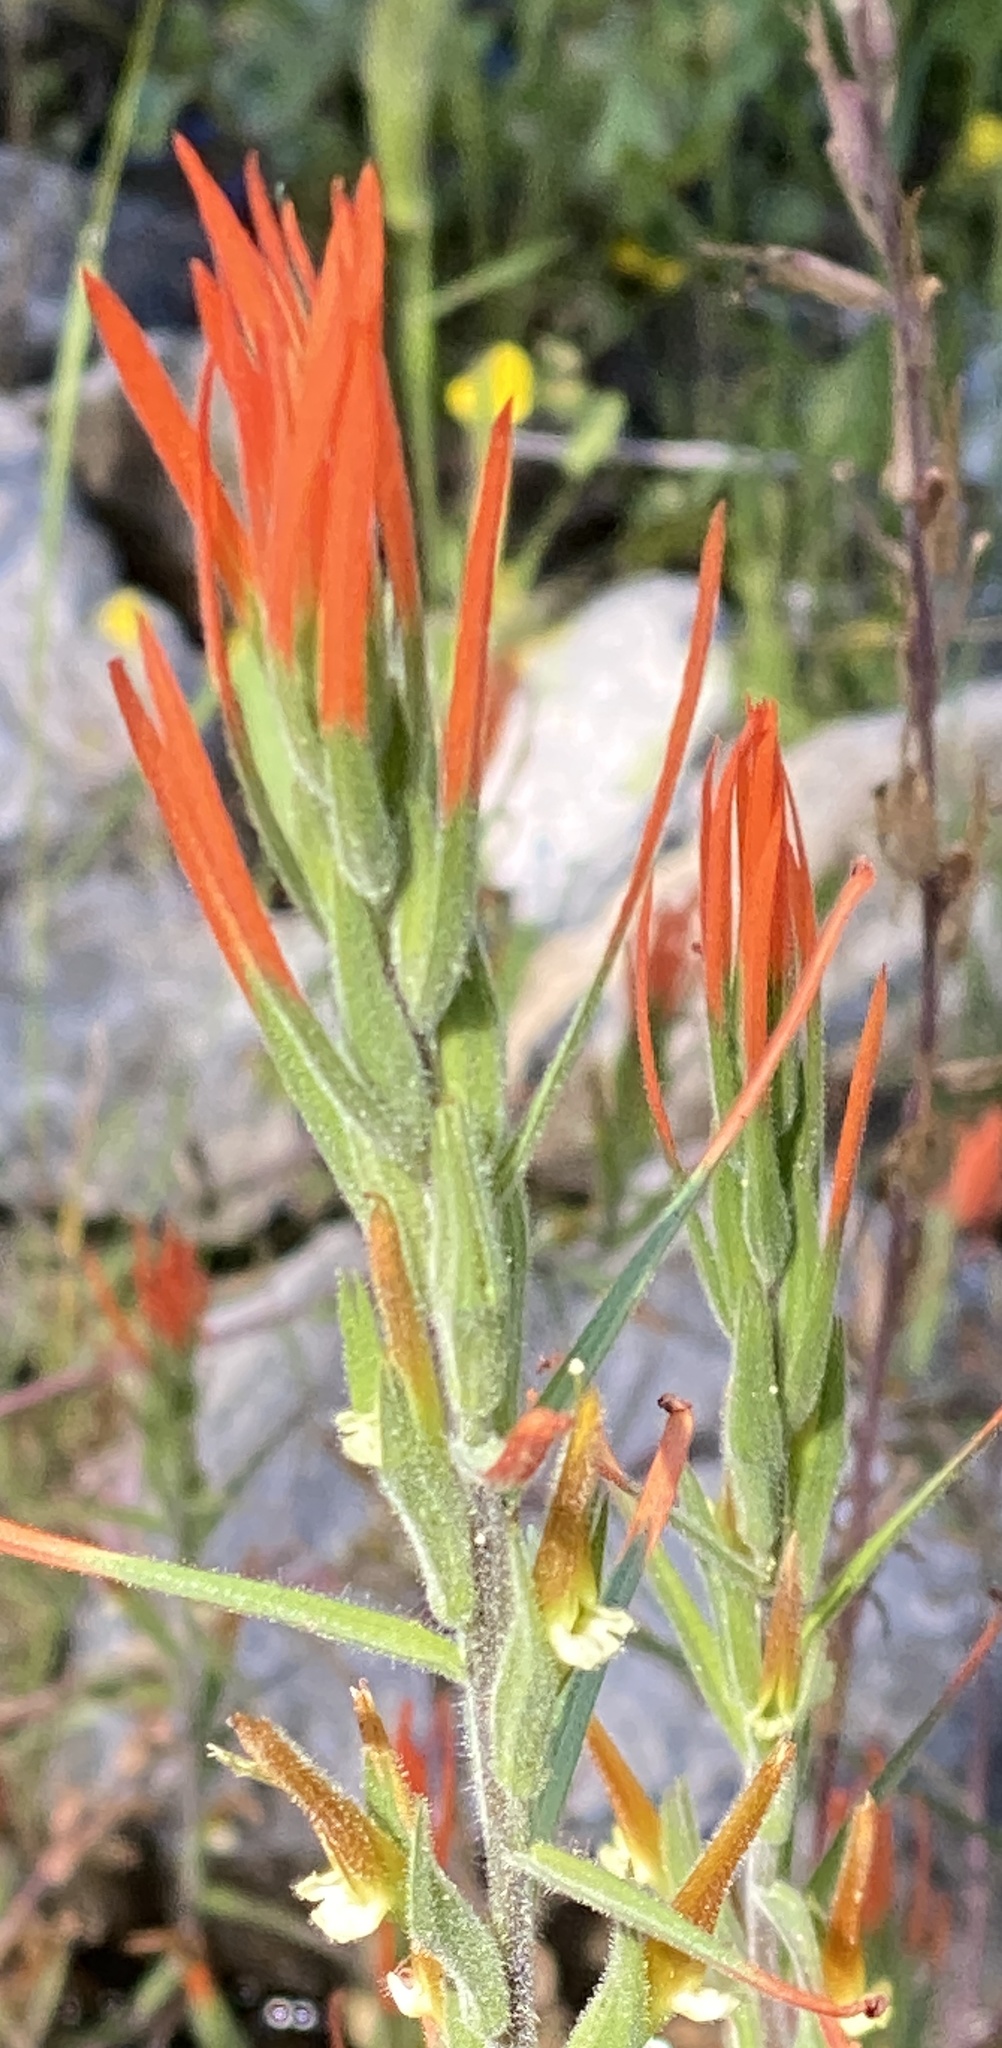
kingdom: Plantae
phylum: Tracheophyta
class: Magnoliopsida
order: Lamiales
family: Orobanchaceae
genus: Castilleja
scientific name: Castilleja minor
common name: Seep paintbrush
